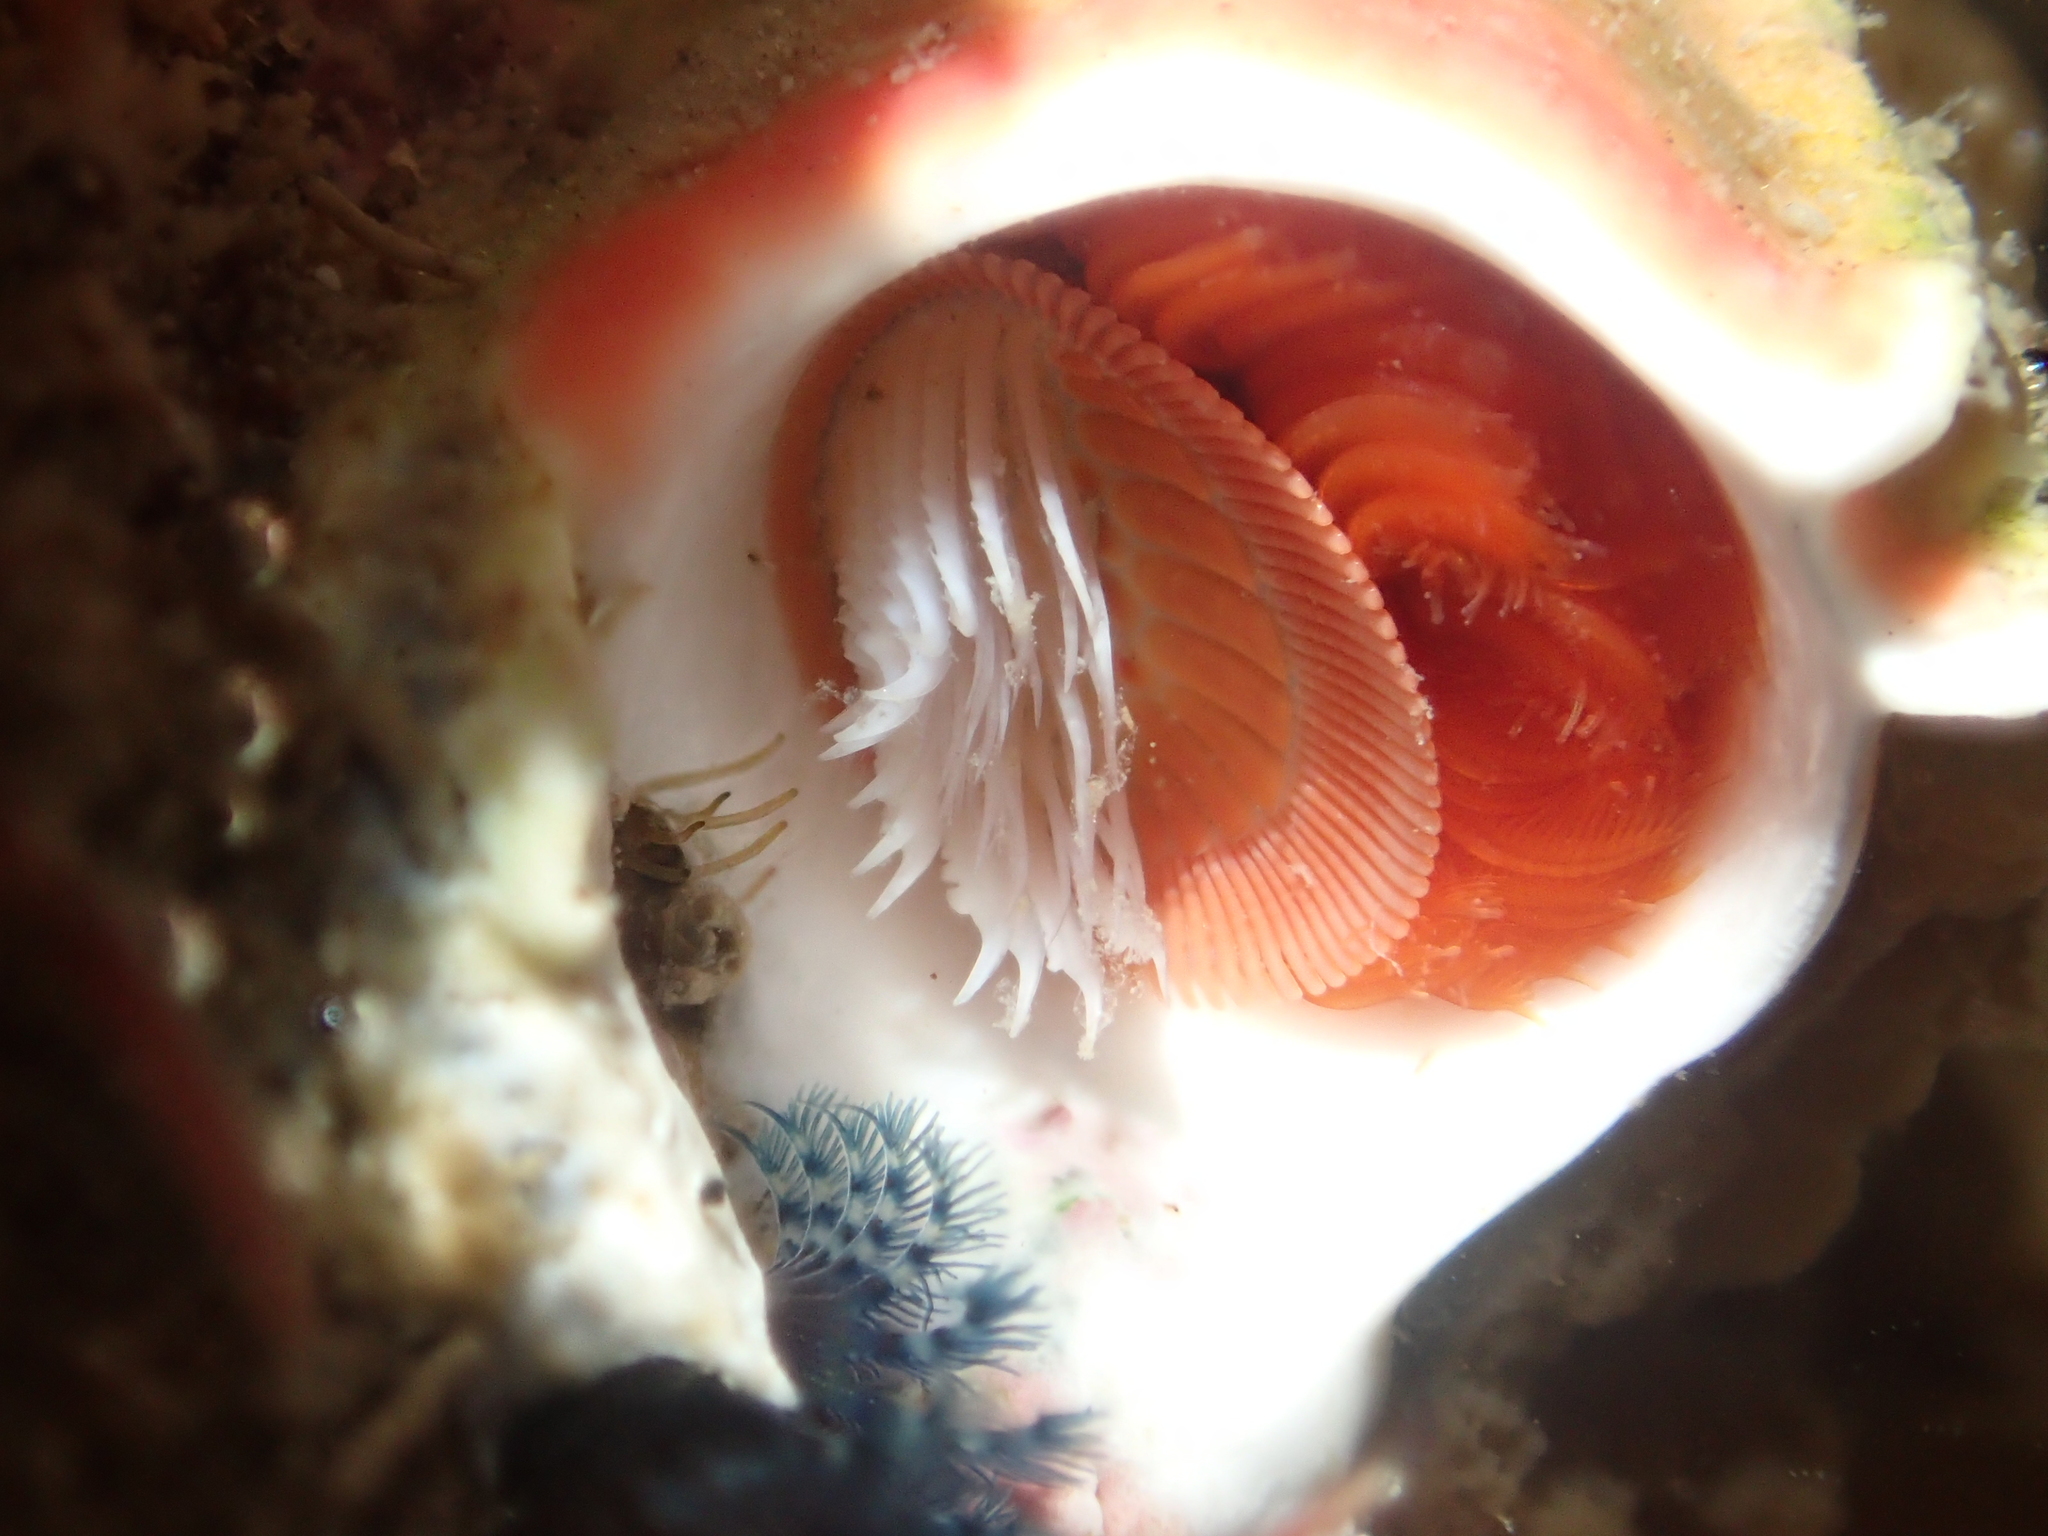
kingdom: Animalia
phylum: Annelida
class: Polychaeta
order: Sabellida
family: Serpulidae
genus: Galeolaria
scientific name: Galeolaria hystrix
